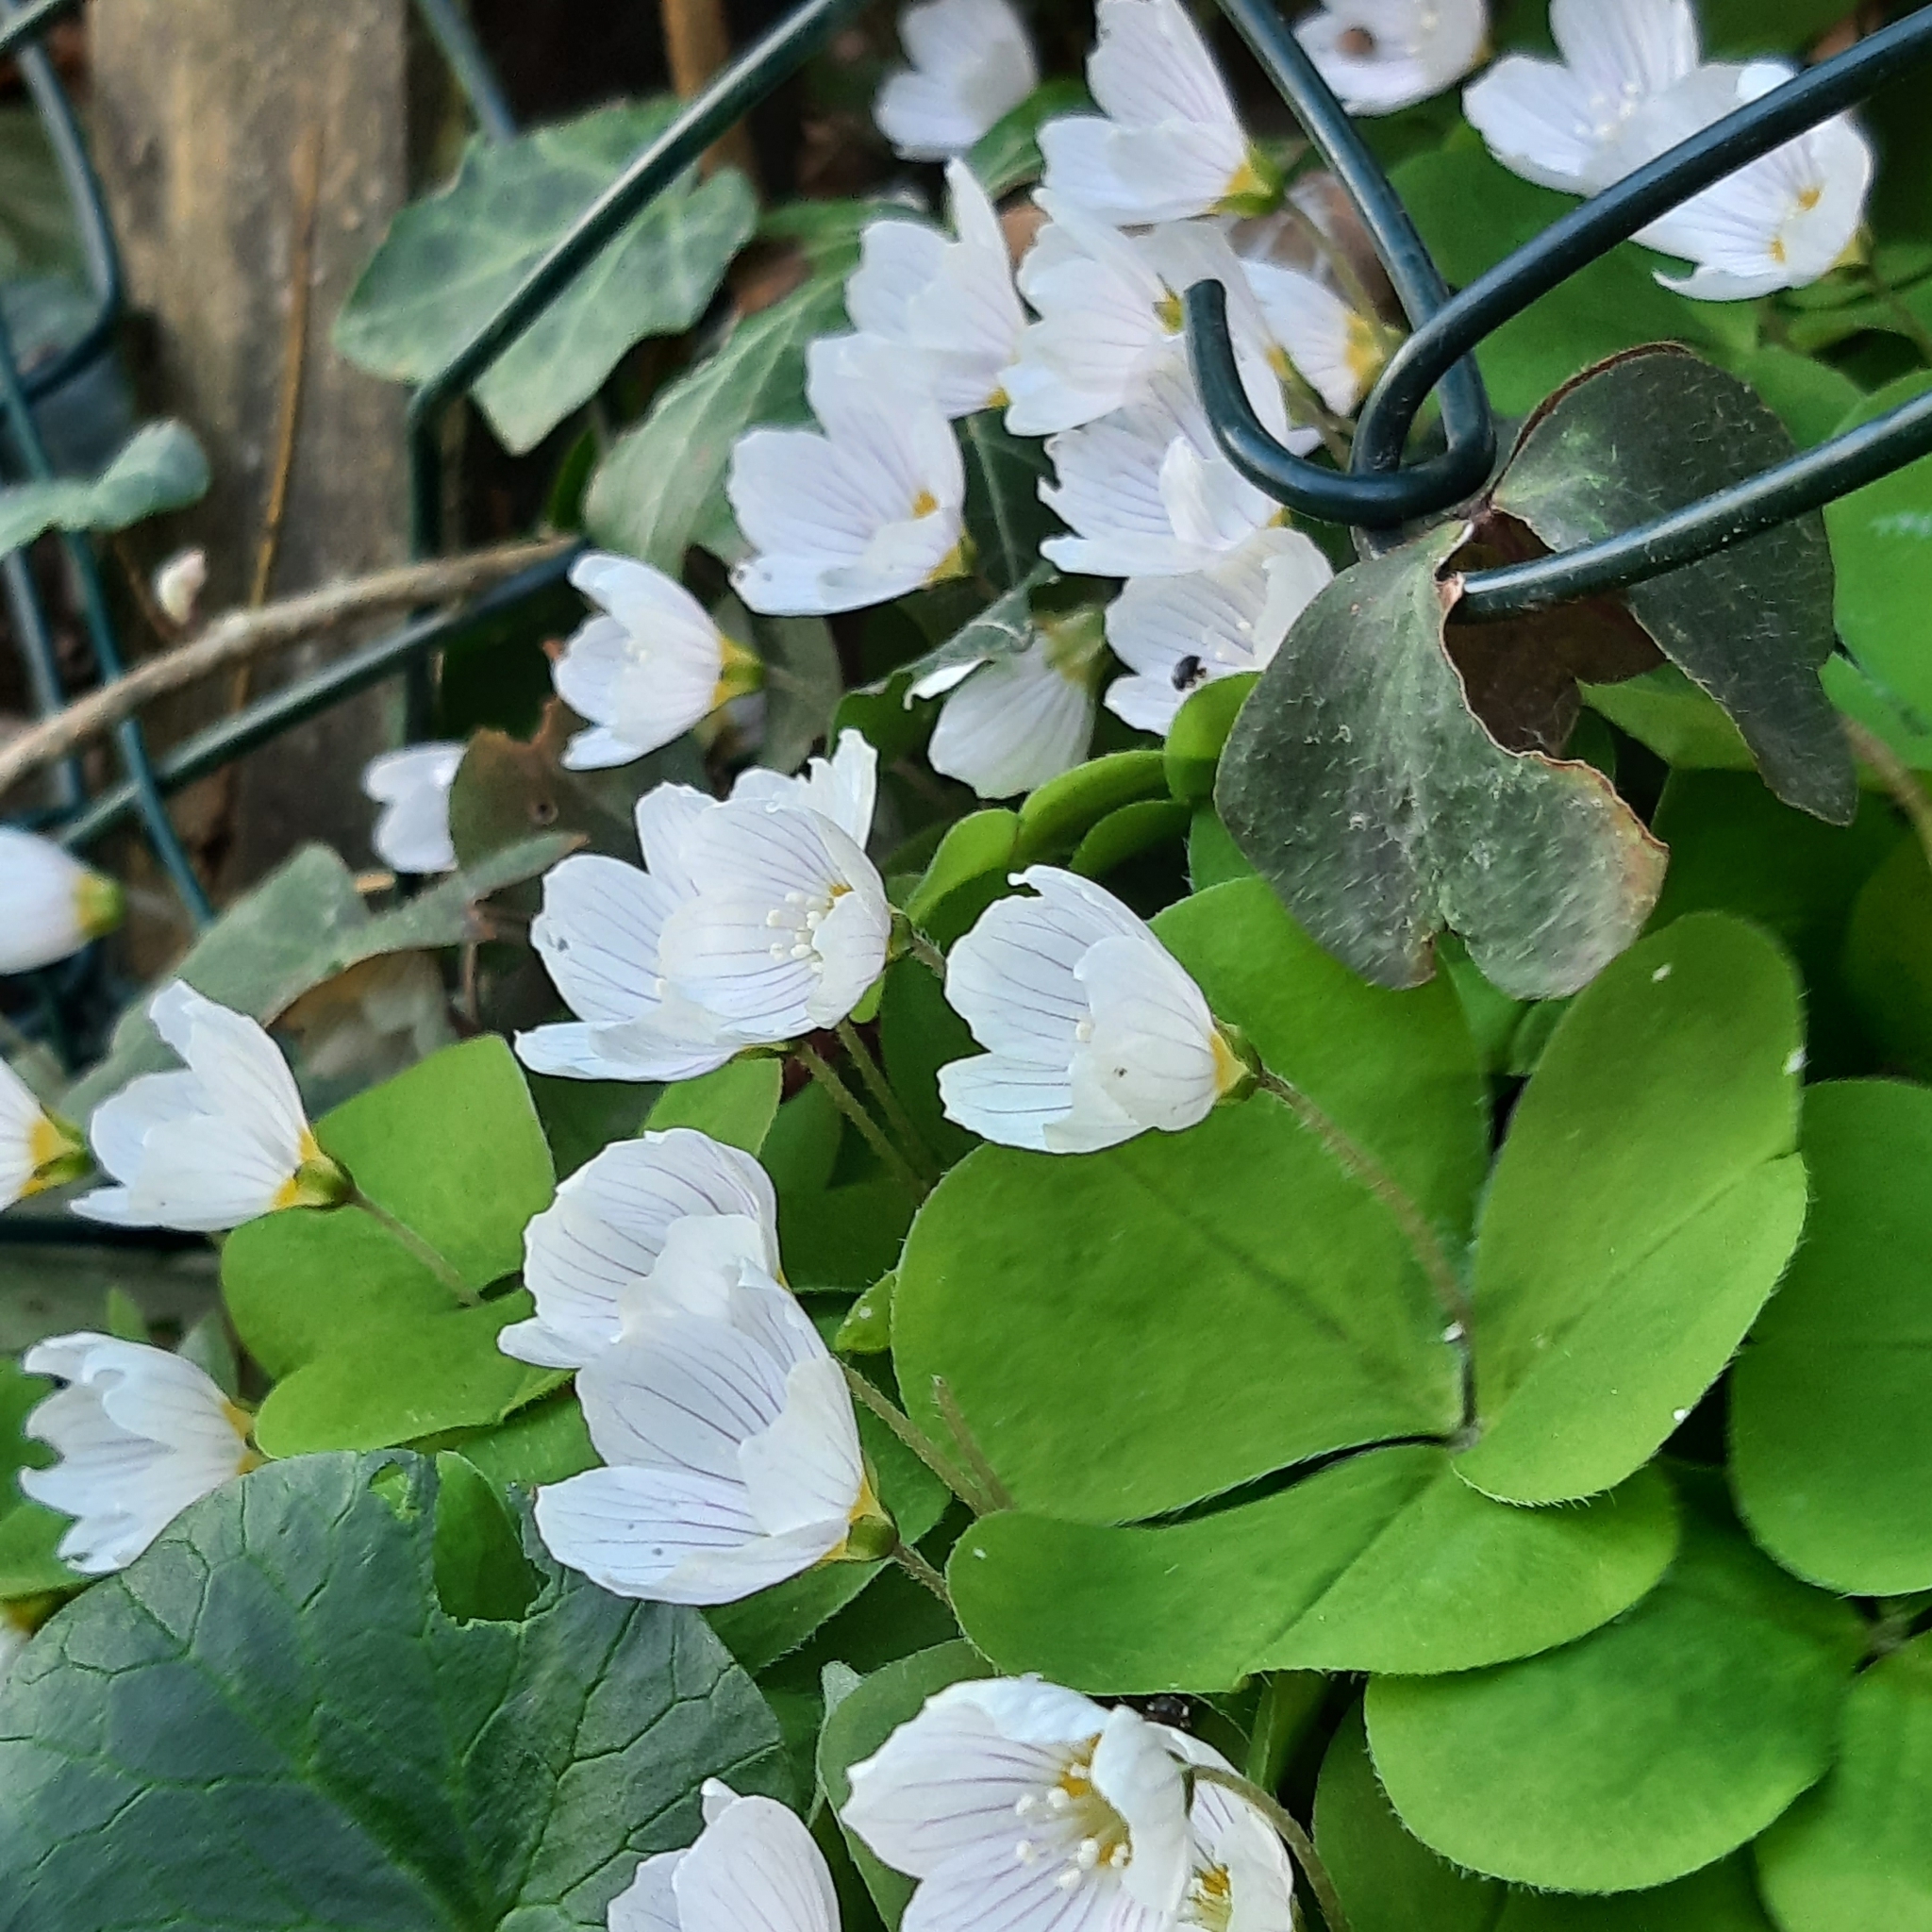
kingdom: Plantae
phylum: Tracheophyta
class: Magnoliopsida
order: Oxalidales
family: Oxalidaceae
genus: Oxalis
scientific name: Oxalis acetosella
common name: Wood-sorrel
